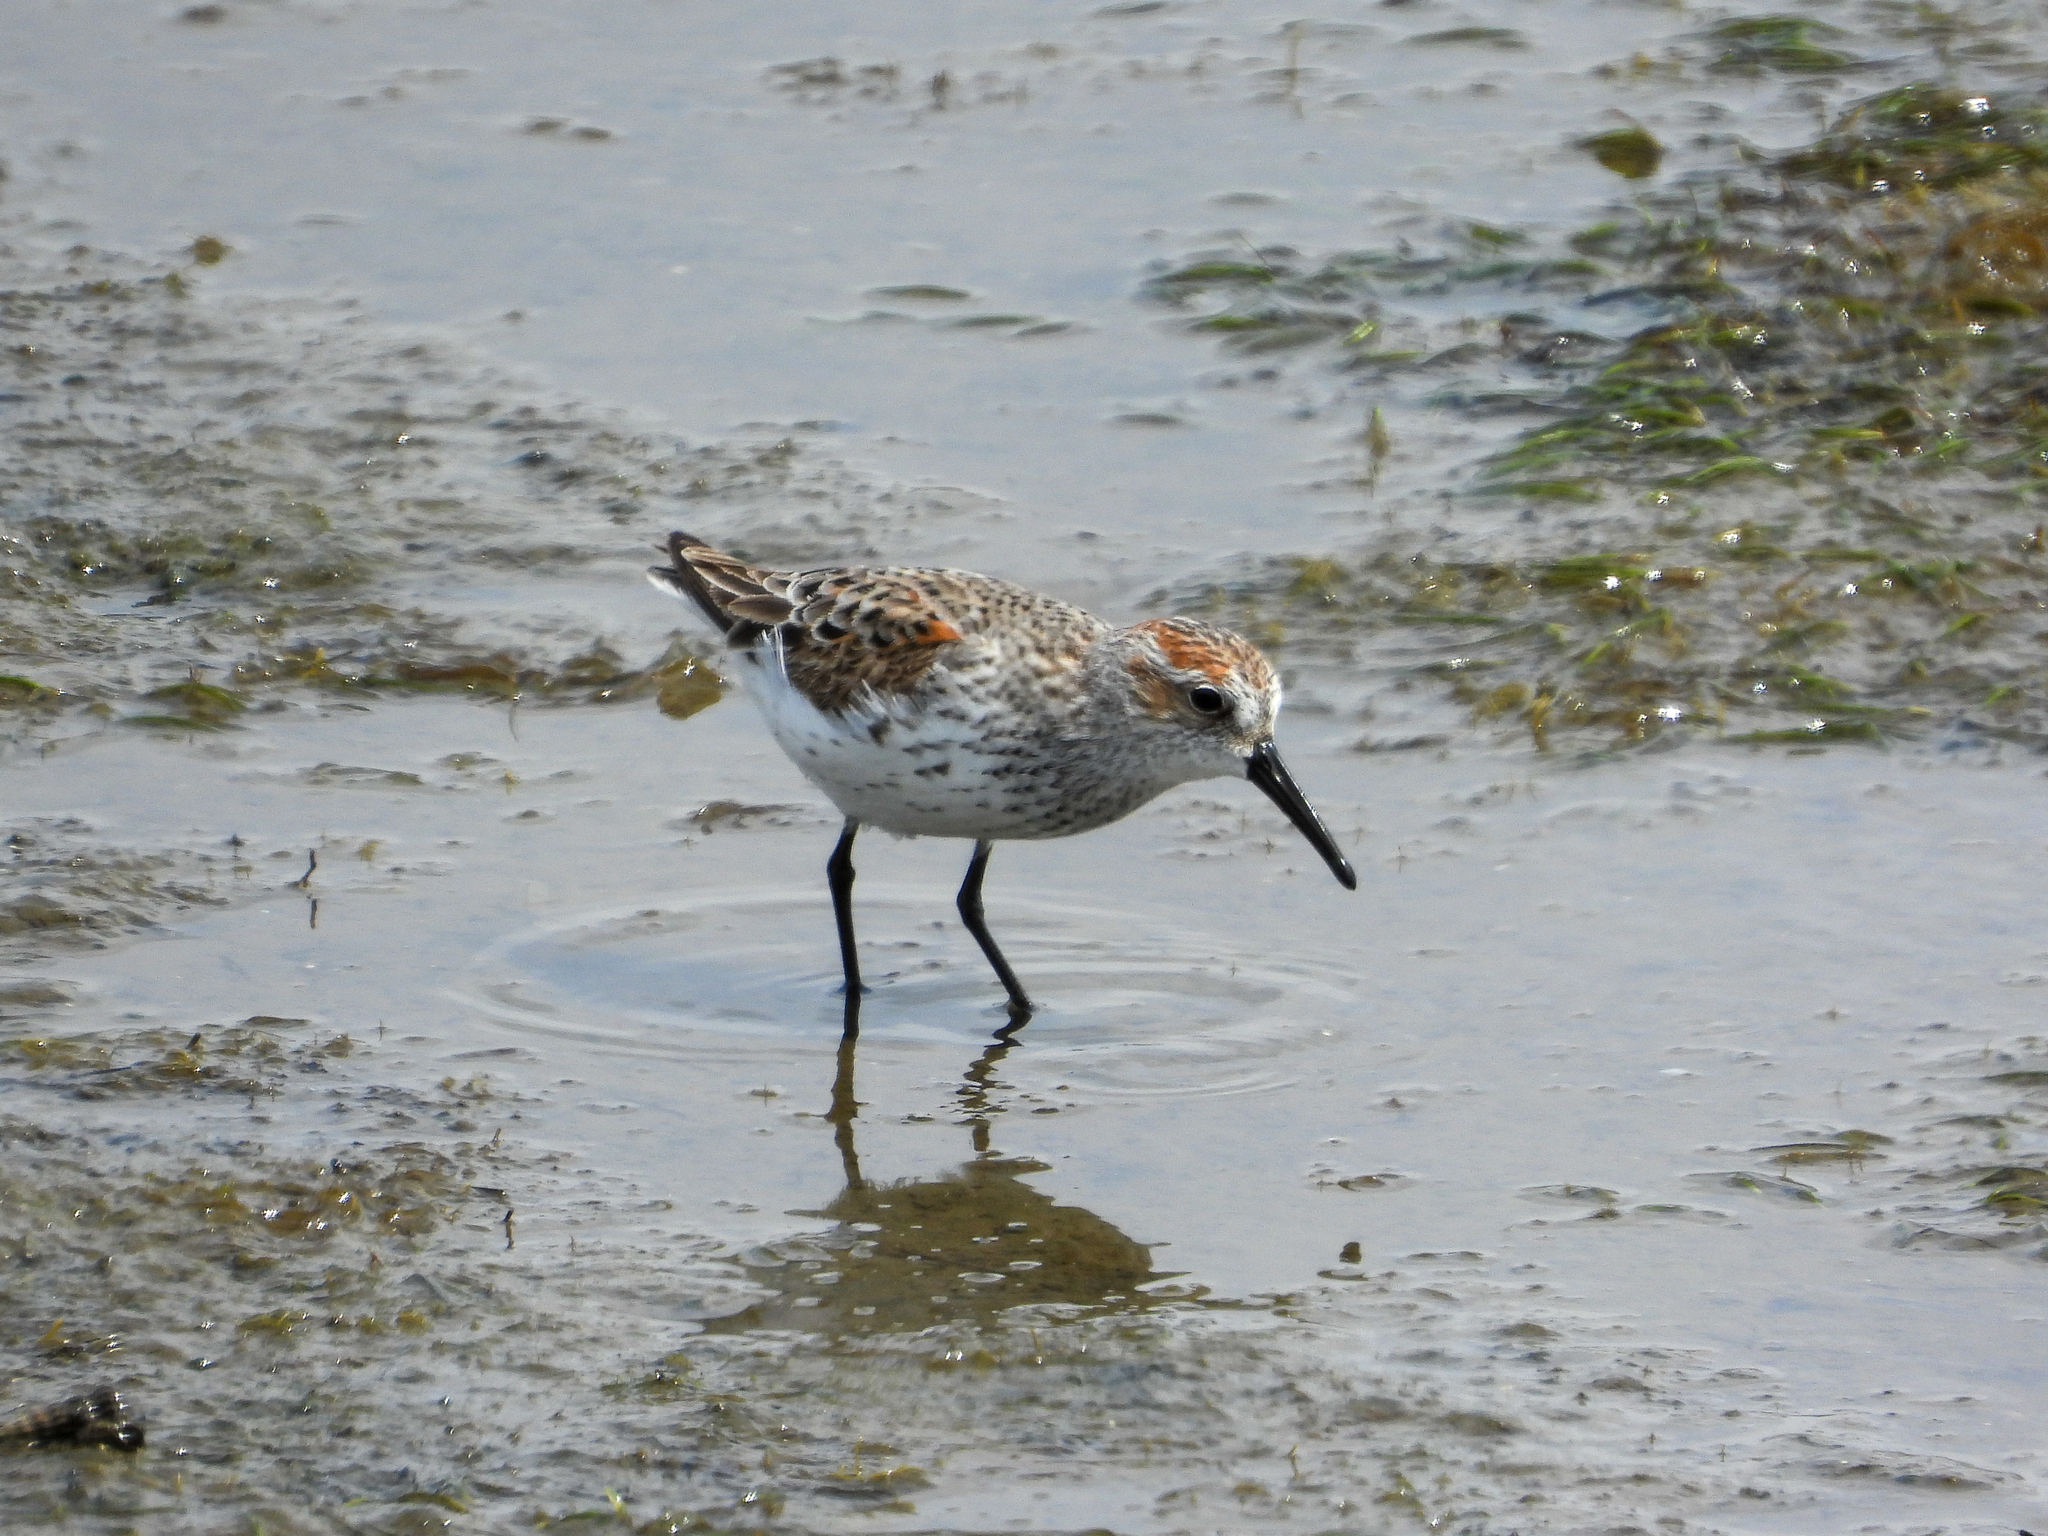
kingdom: Animalia
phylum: Chordata
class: Aves
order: Charadriiformes
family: Scolopacidae
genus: Calidris
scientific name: Calidris mauri
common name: Western sandpiper
